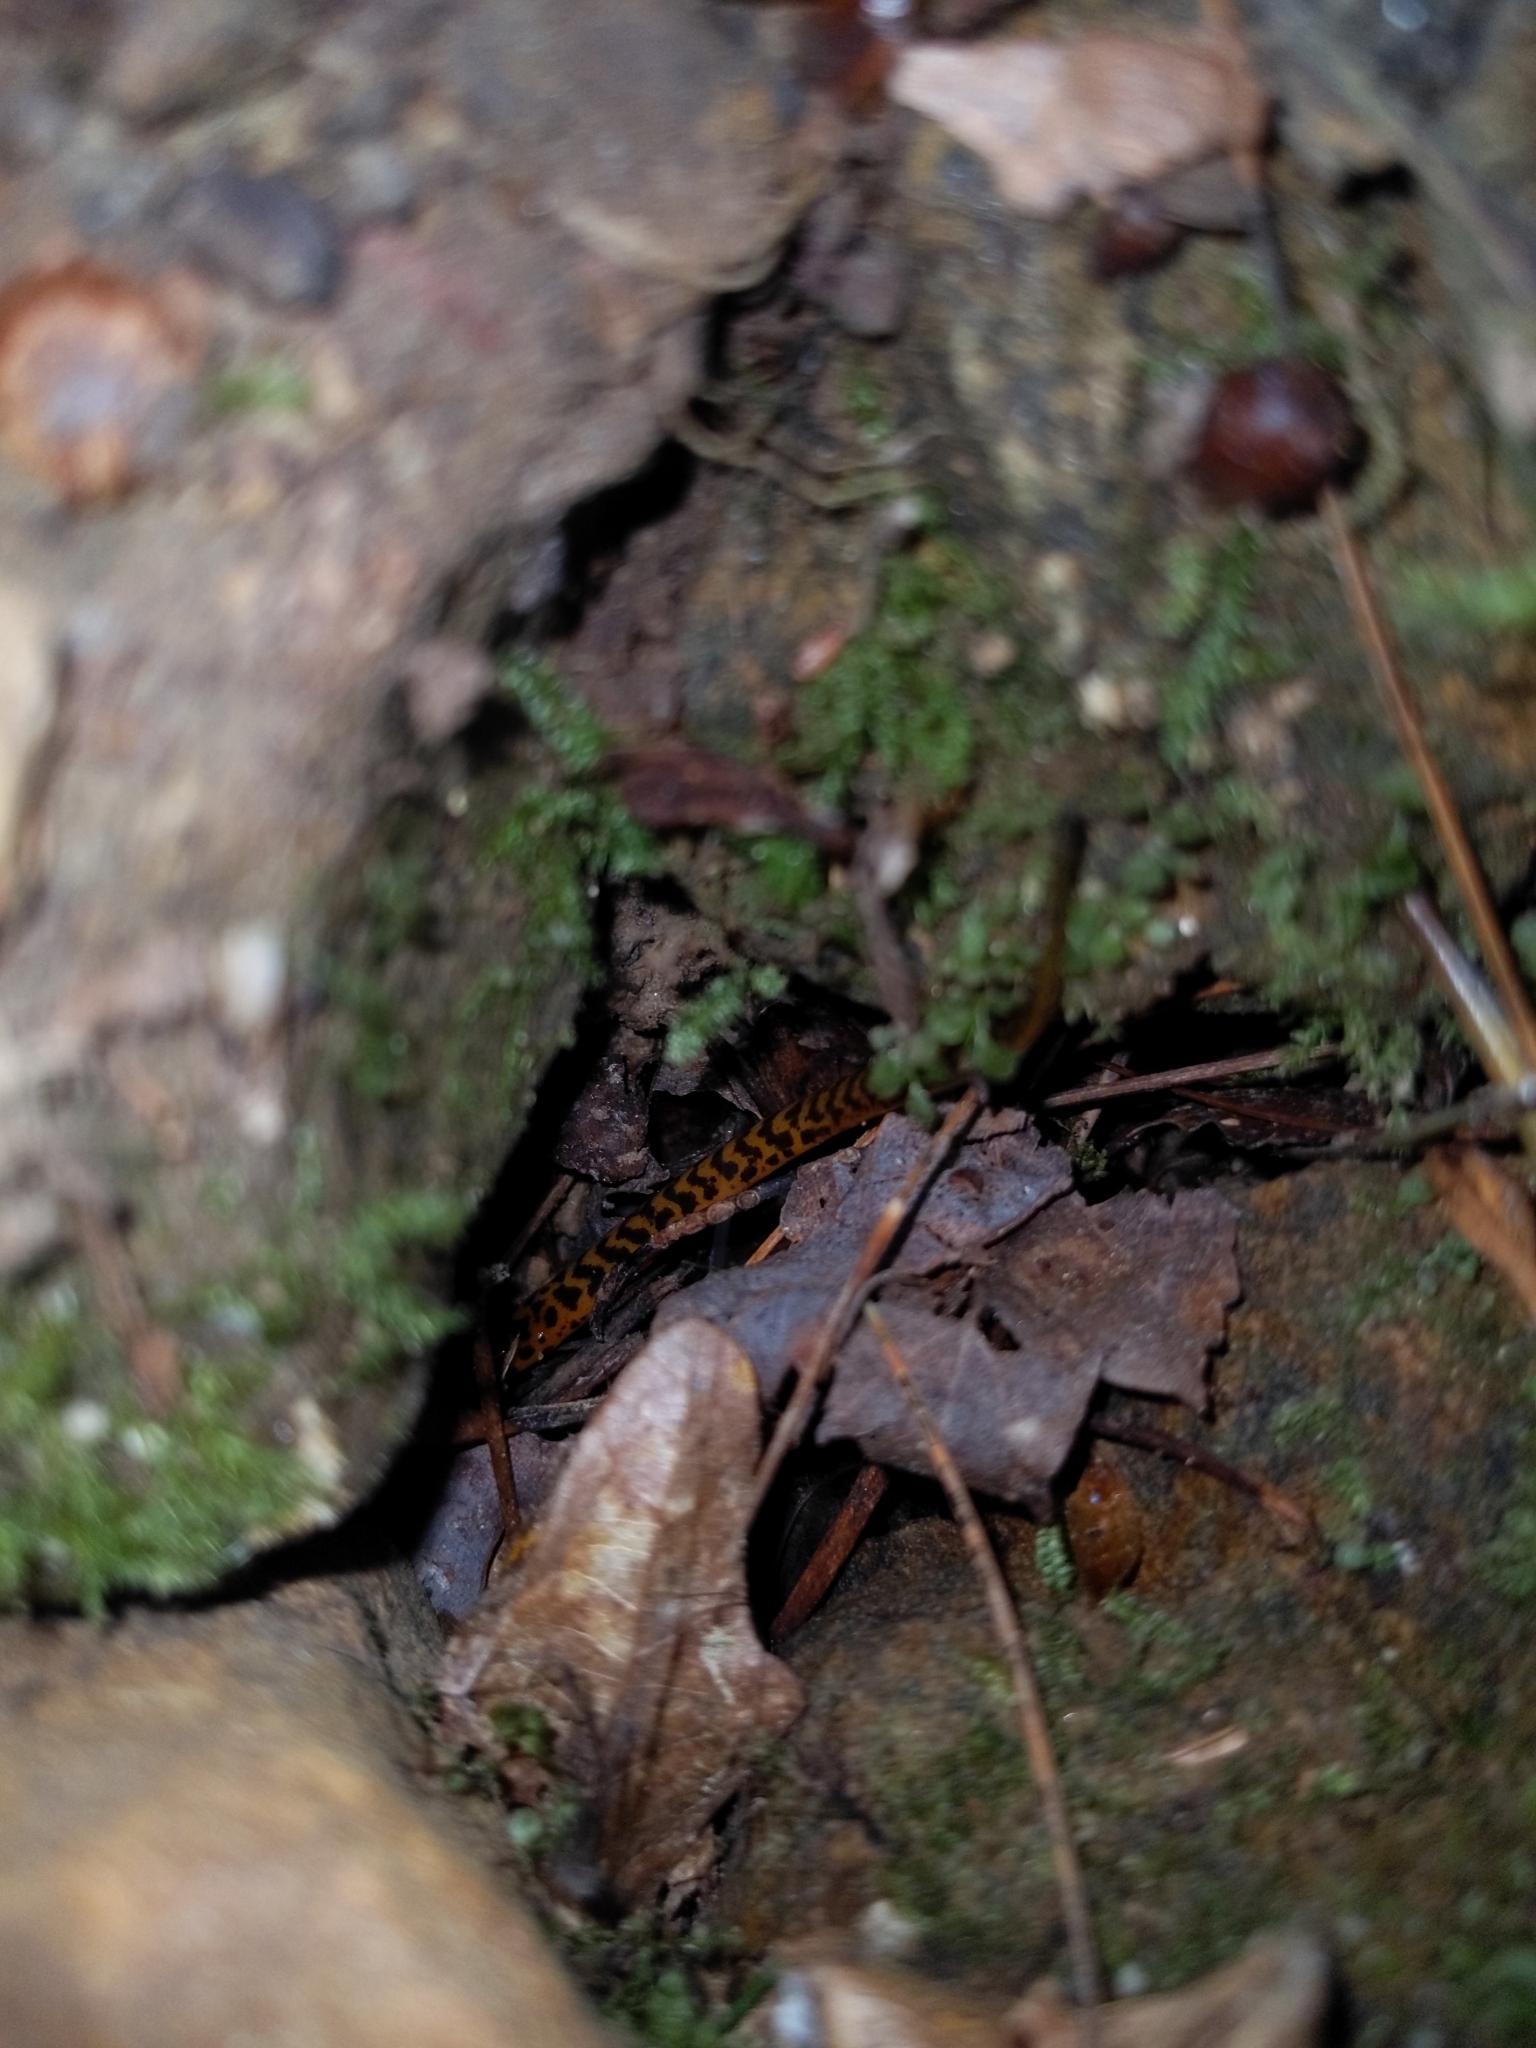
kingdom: Animalia
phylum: Chordata
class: Amphibia
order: Caudata
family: Plethodontidae
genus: Eurycea
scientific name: Eurycea longicauda
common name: Long-tailed salamander
